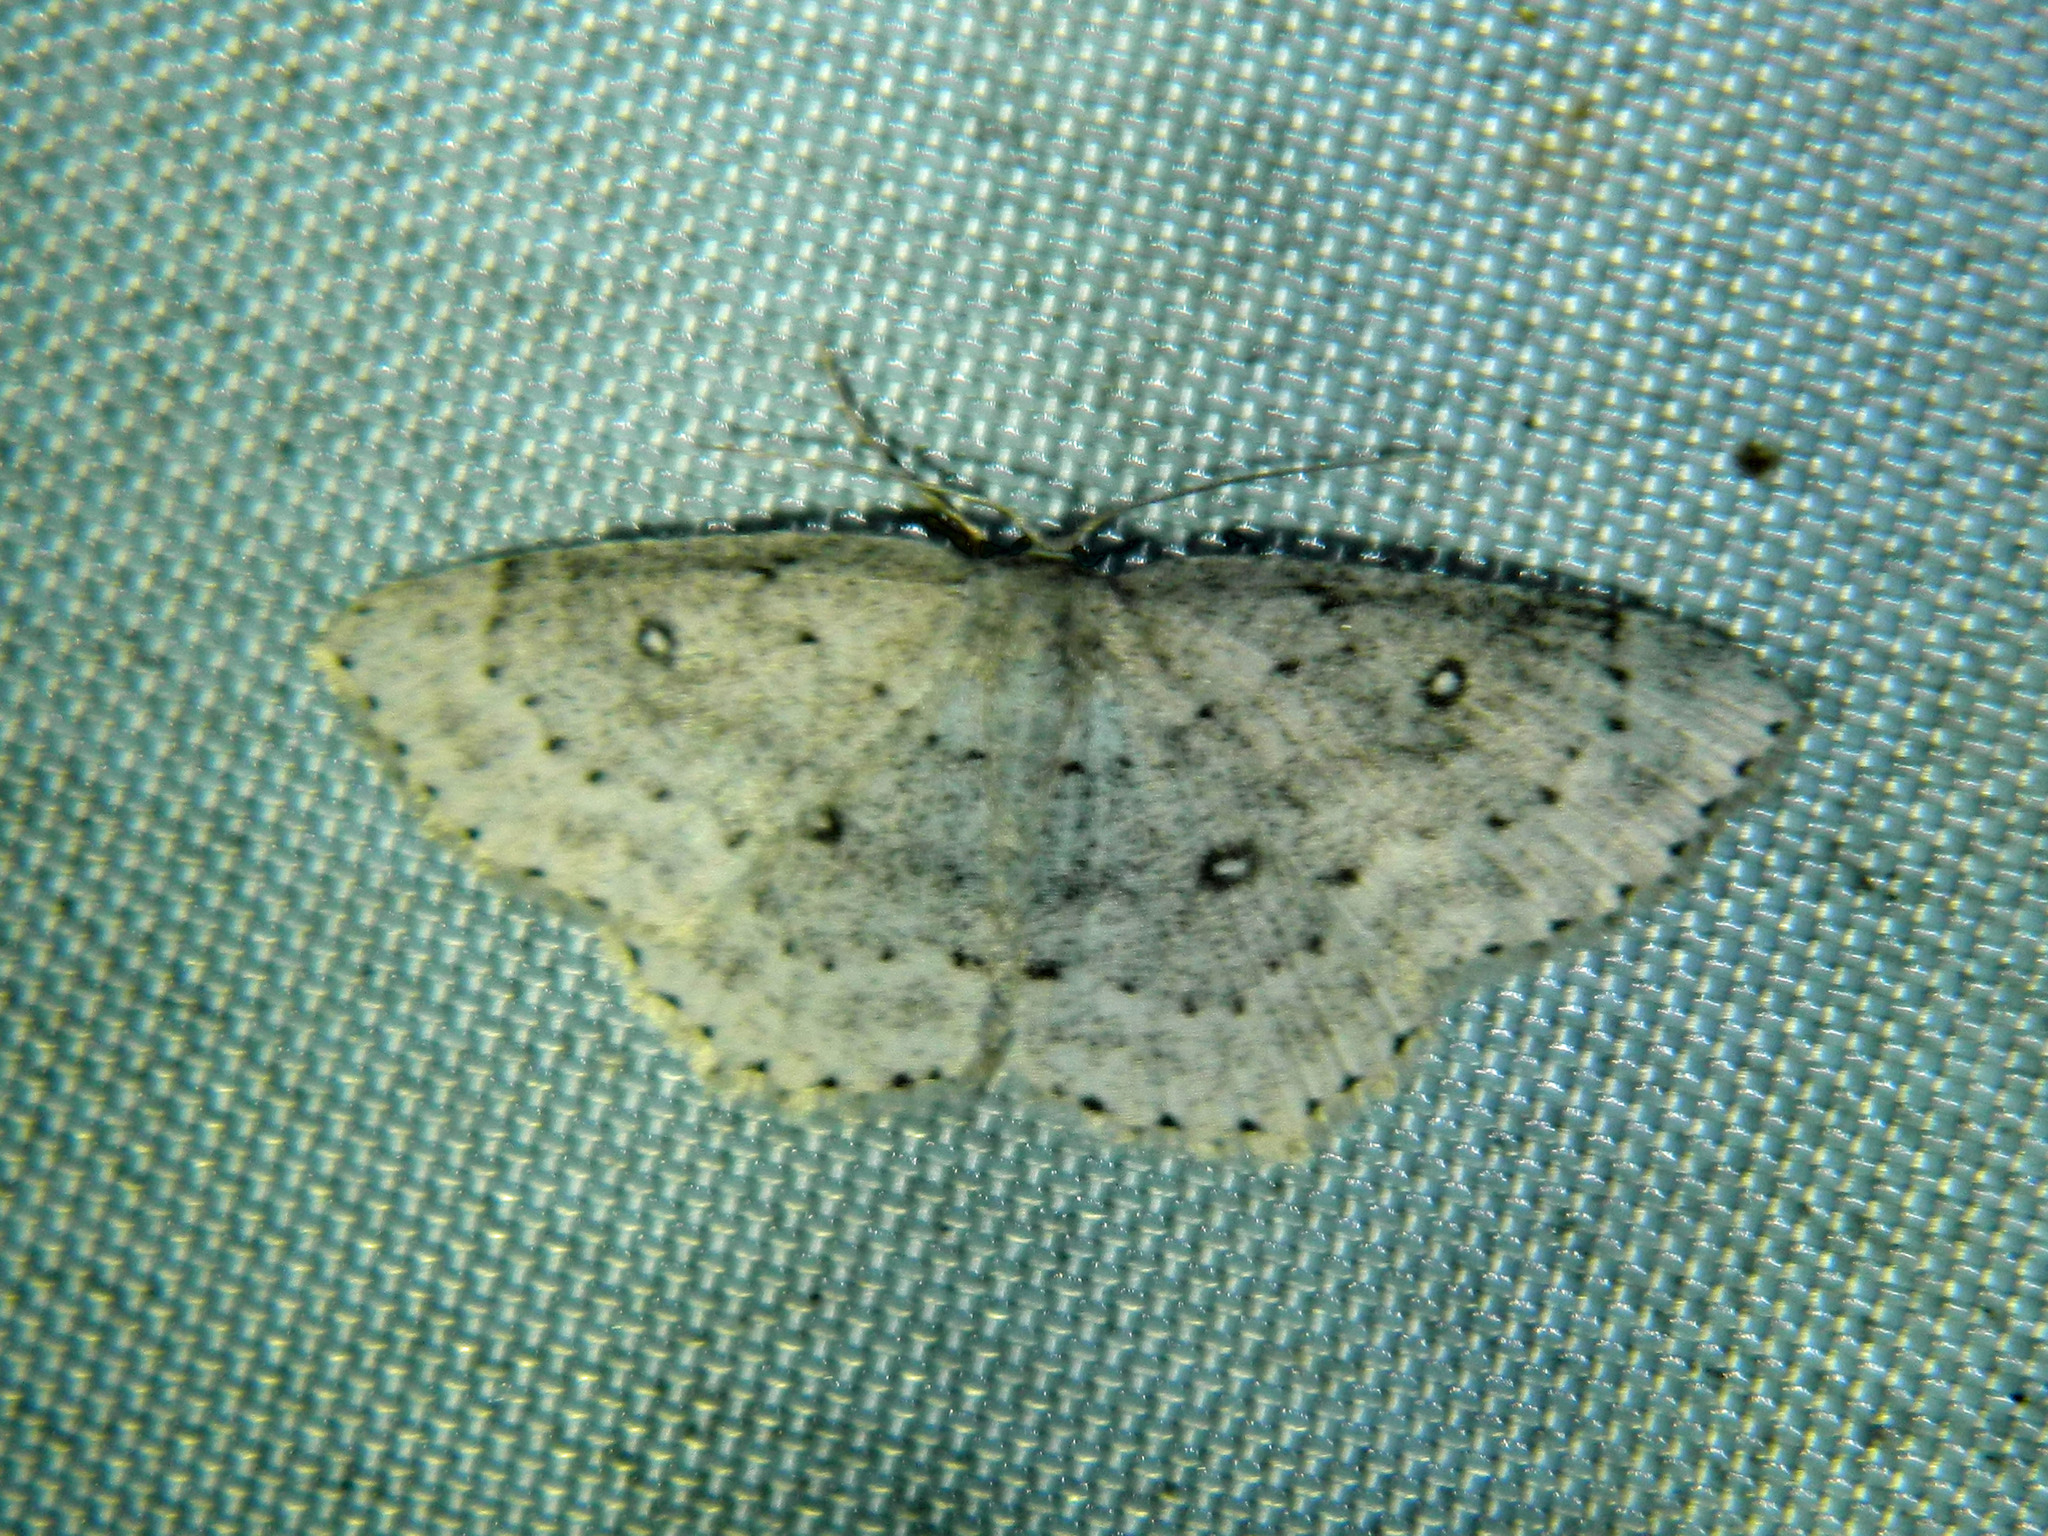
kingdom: Animalia
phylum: Arthropoda
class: Insecta
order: Lepidoptera
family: Geometridae
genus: Cyclophora
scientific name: Cyclophora pendulinaria
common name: Sweet fern geometer
